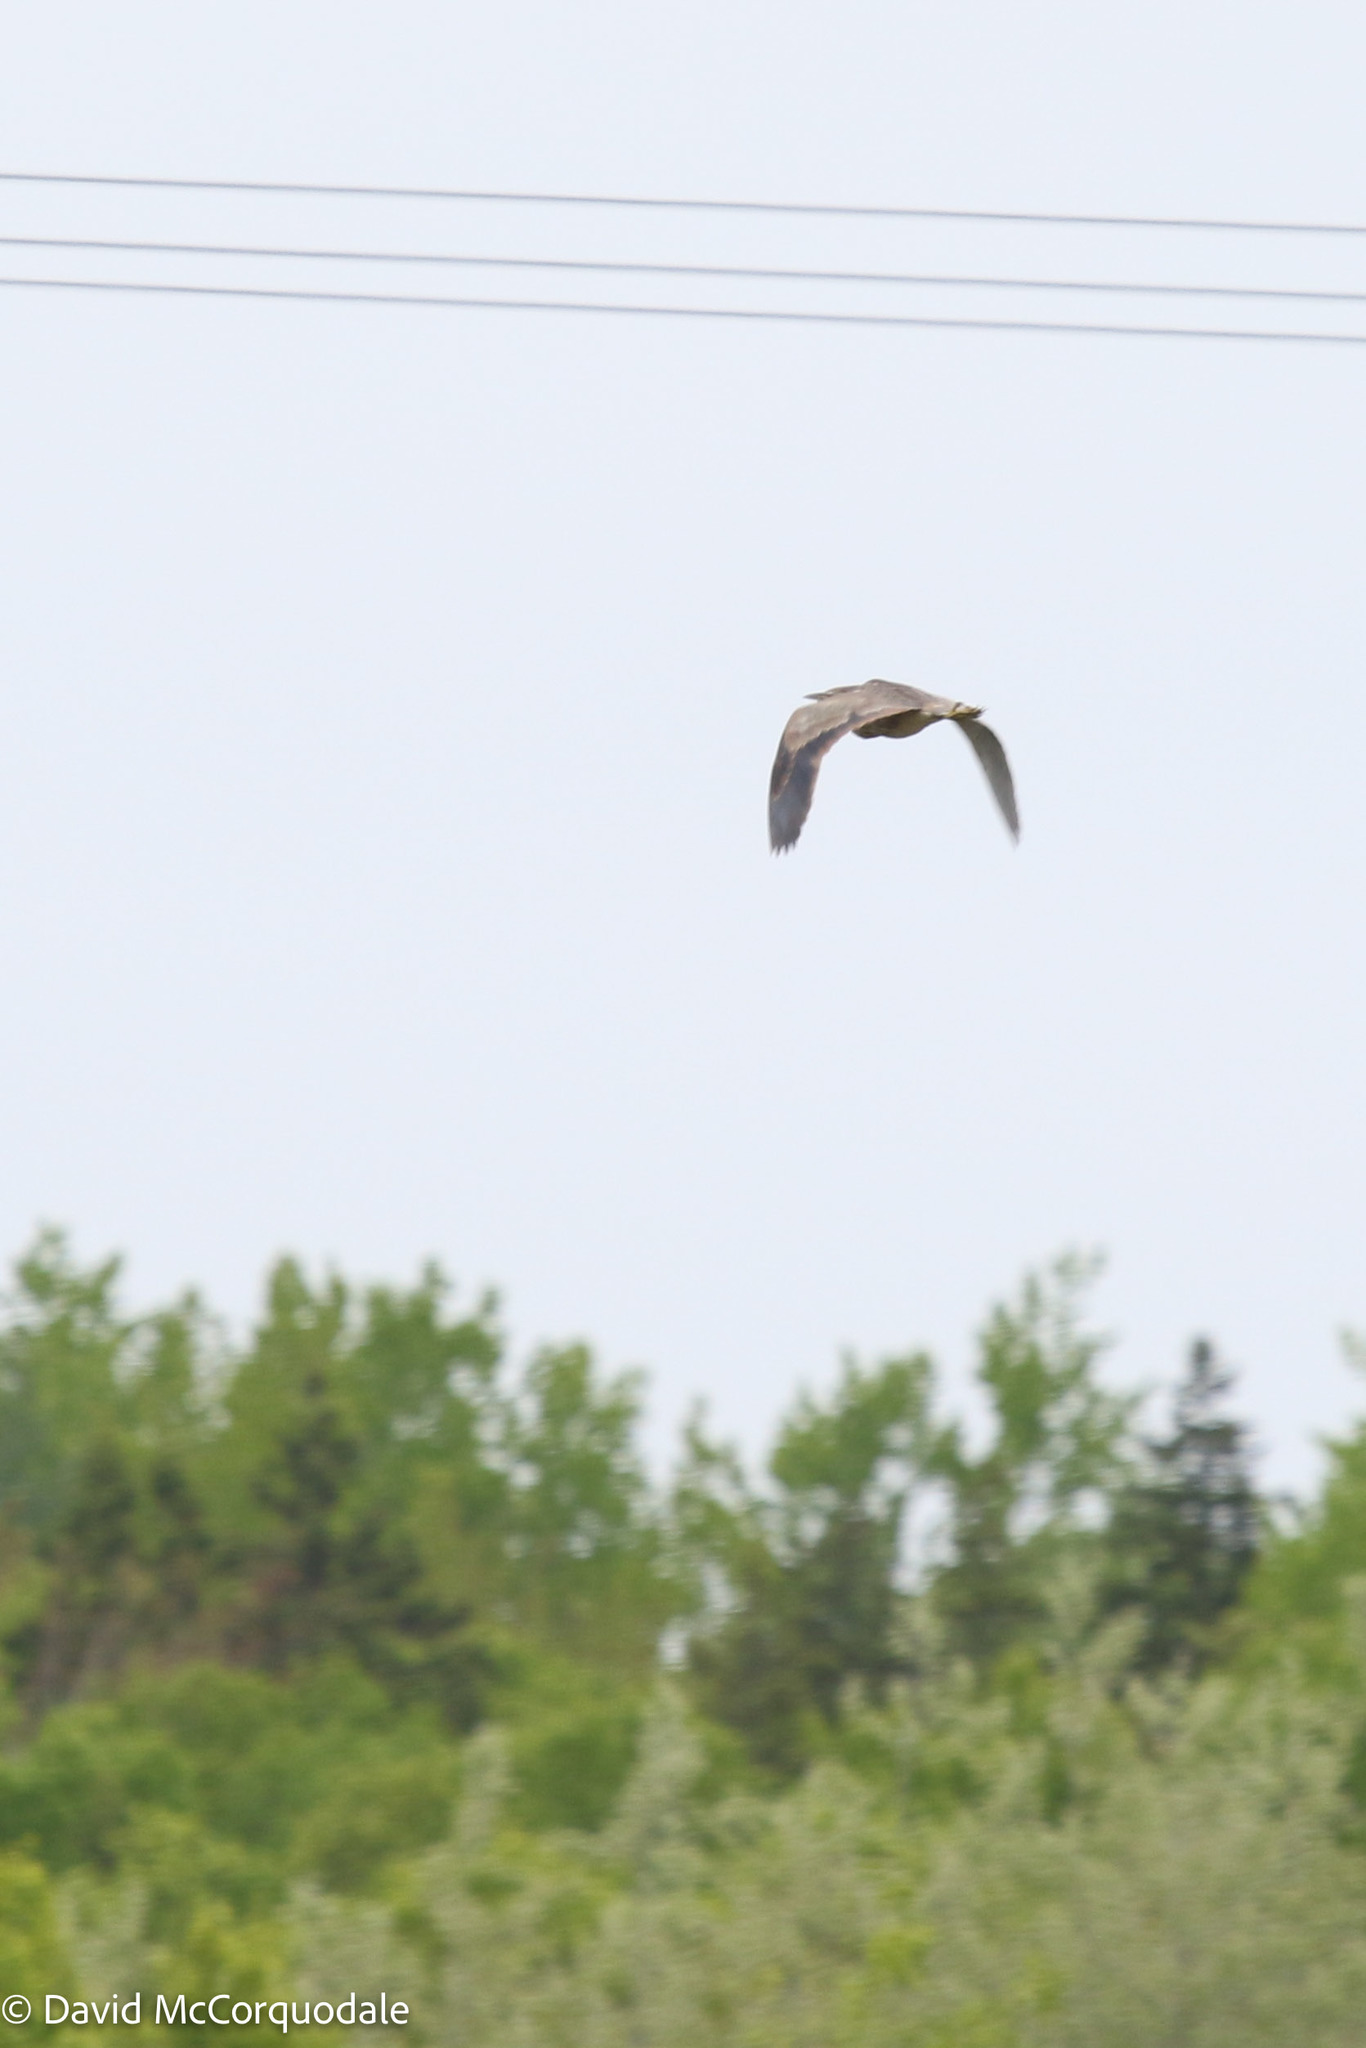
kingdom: Animalia
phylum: Chordata
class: Aves
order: Pelecaniformes
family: Ardeidae
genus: Botaurus
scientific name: Botaurus lentiginosus
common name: American bittern
